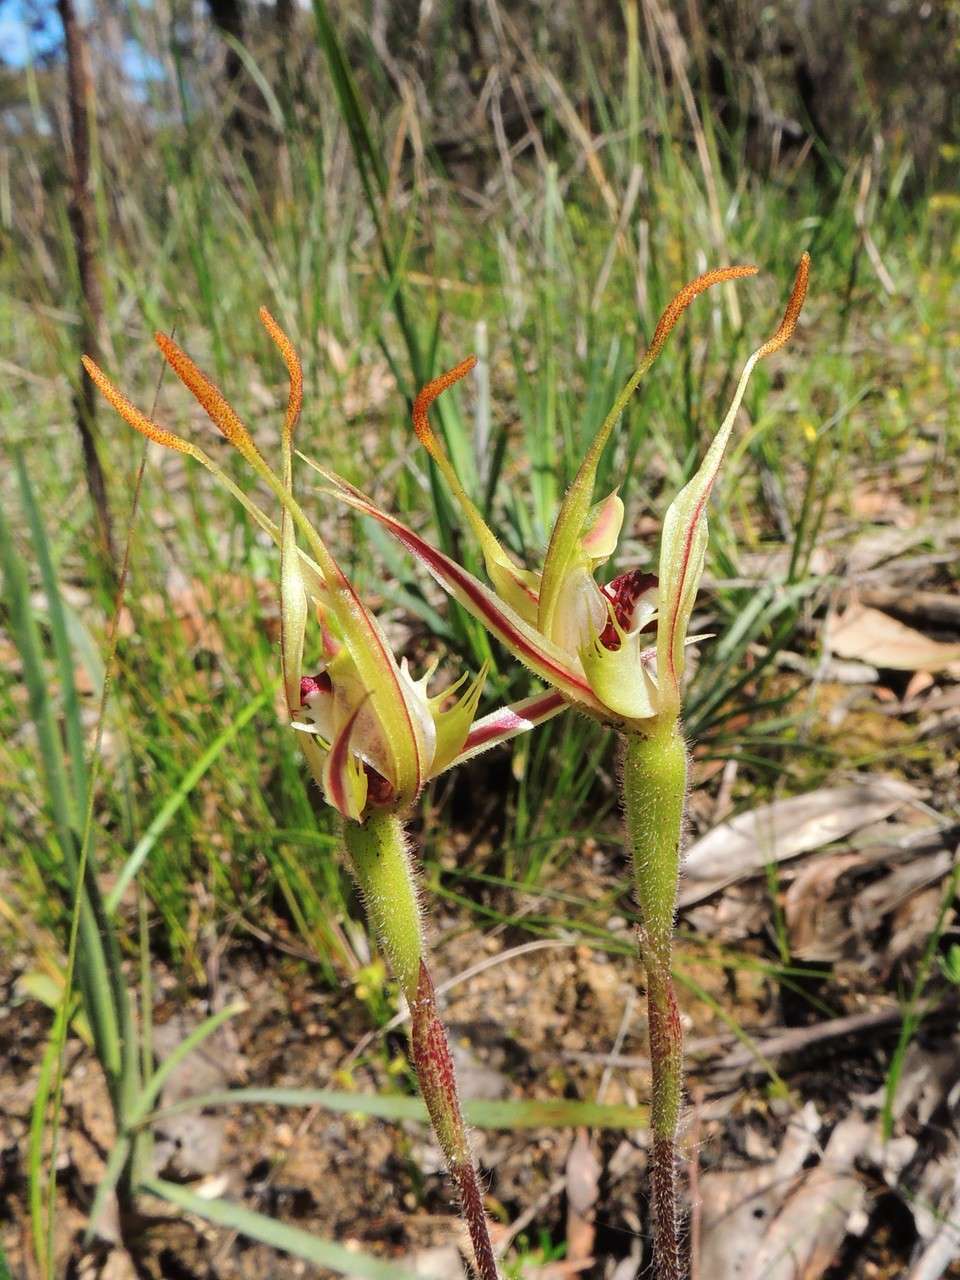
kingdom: Plantae
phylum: Tracheophyta
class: Liliopsida
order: Asparagales
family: Orchidaceae
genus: Caladenia
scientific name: Caladenia parva
